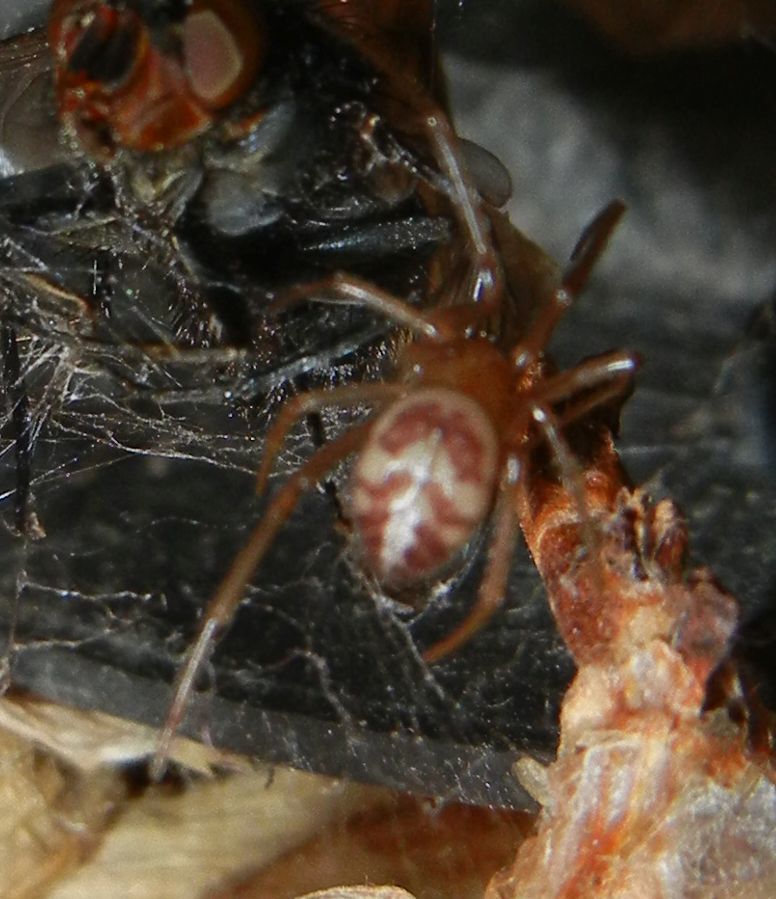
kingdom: Animalia
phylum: Arthropoda
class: Arachnida
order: Araneae
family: Theridiidae
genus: Steatoda
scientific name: Steatoda grossa
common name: False black widow
